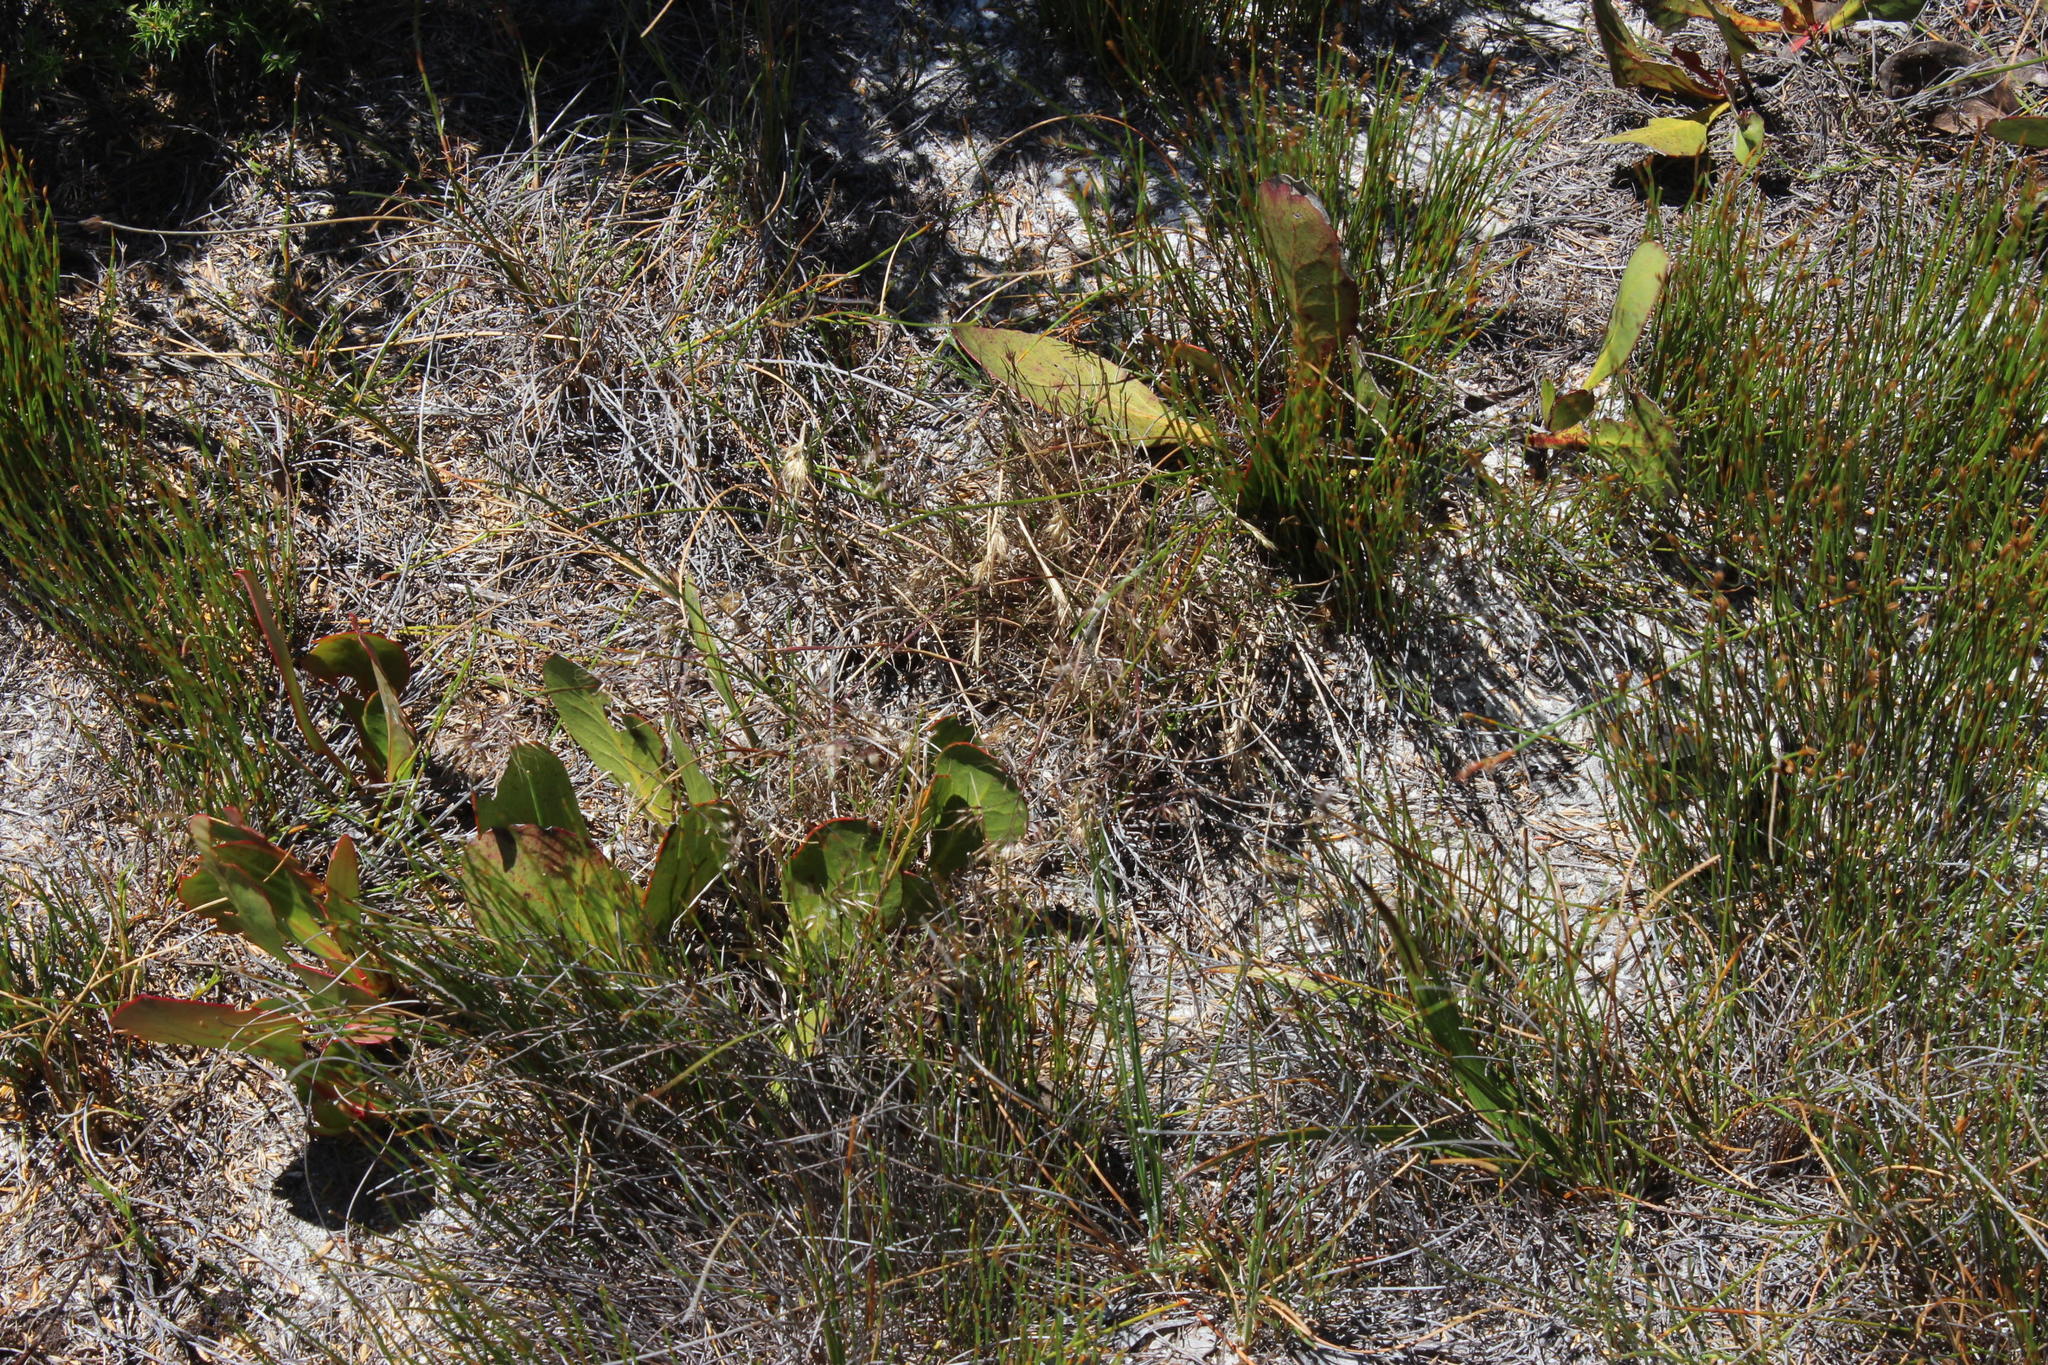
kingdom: Plantae
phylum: Tracheophyta
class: Magnoliopsida
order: Proteales
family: Proteaceae
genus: Protea
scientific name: Protea acaulos
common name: Common ground sugarbush
